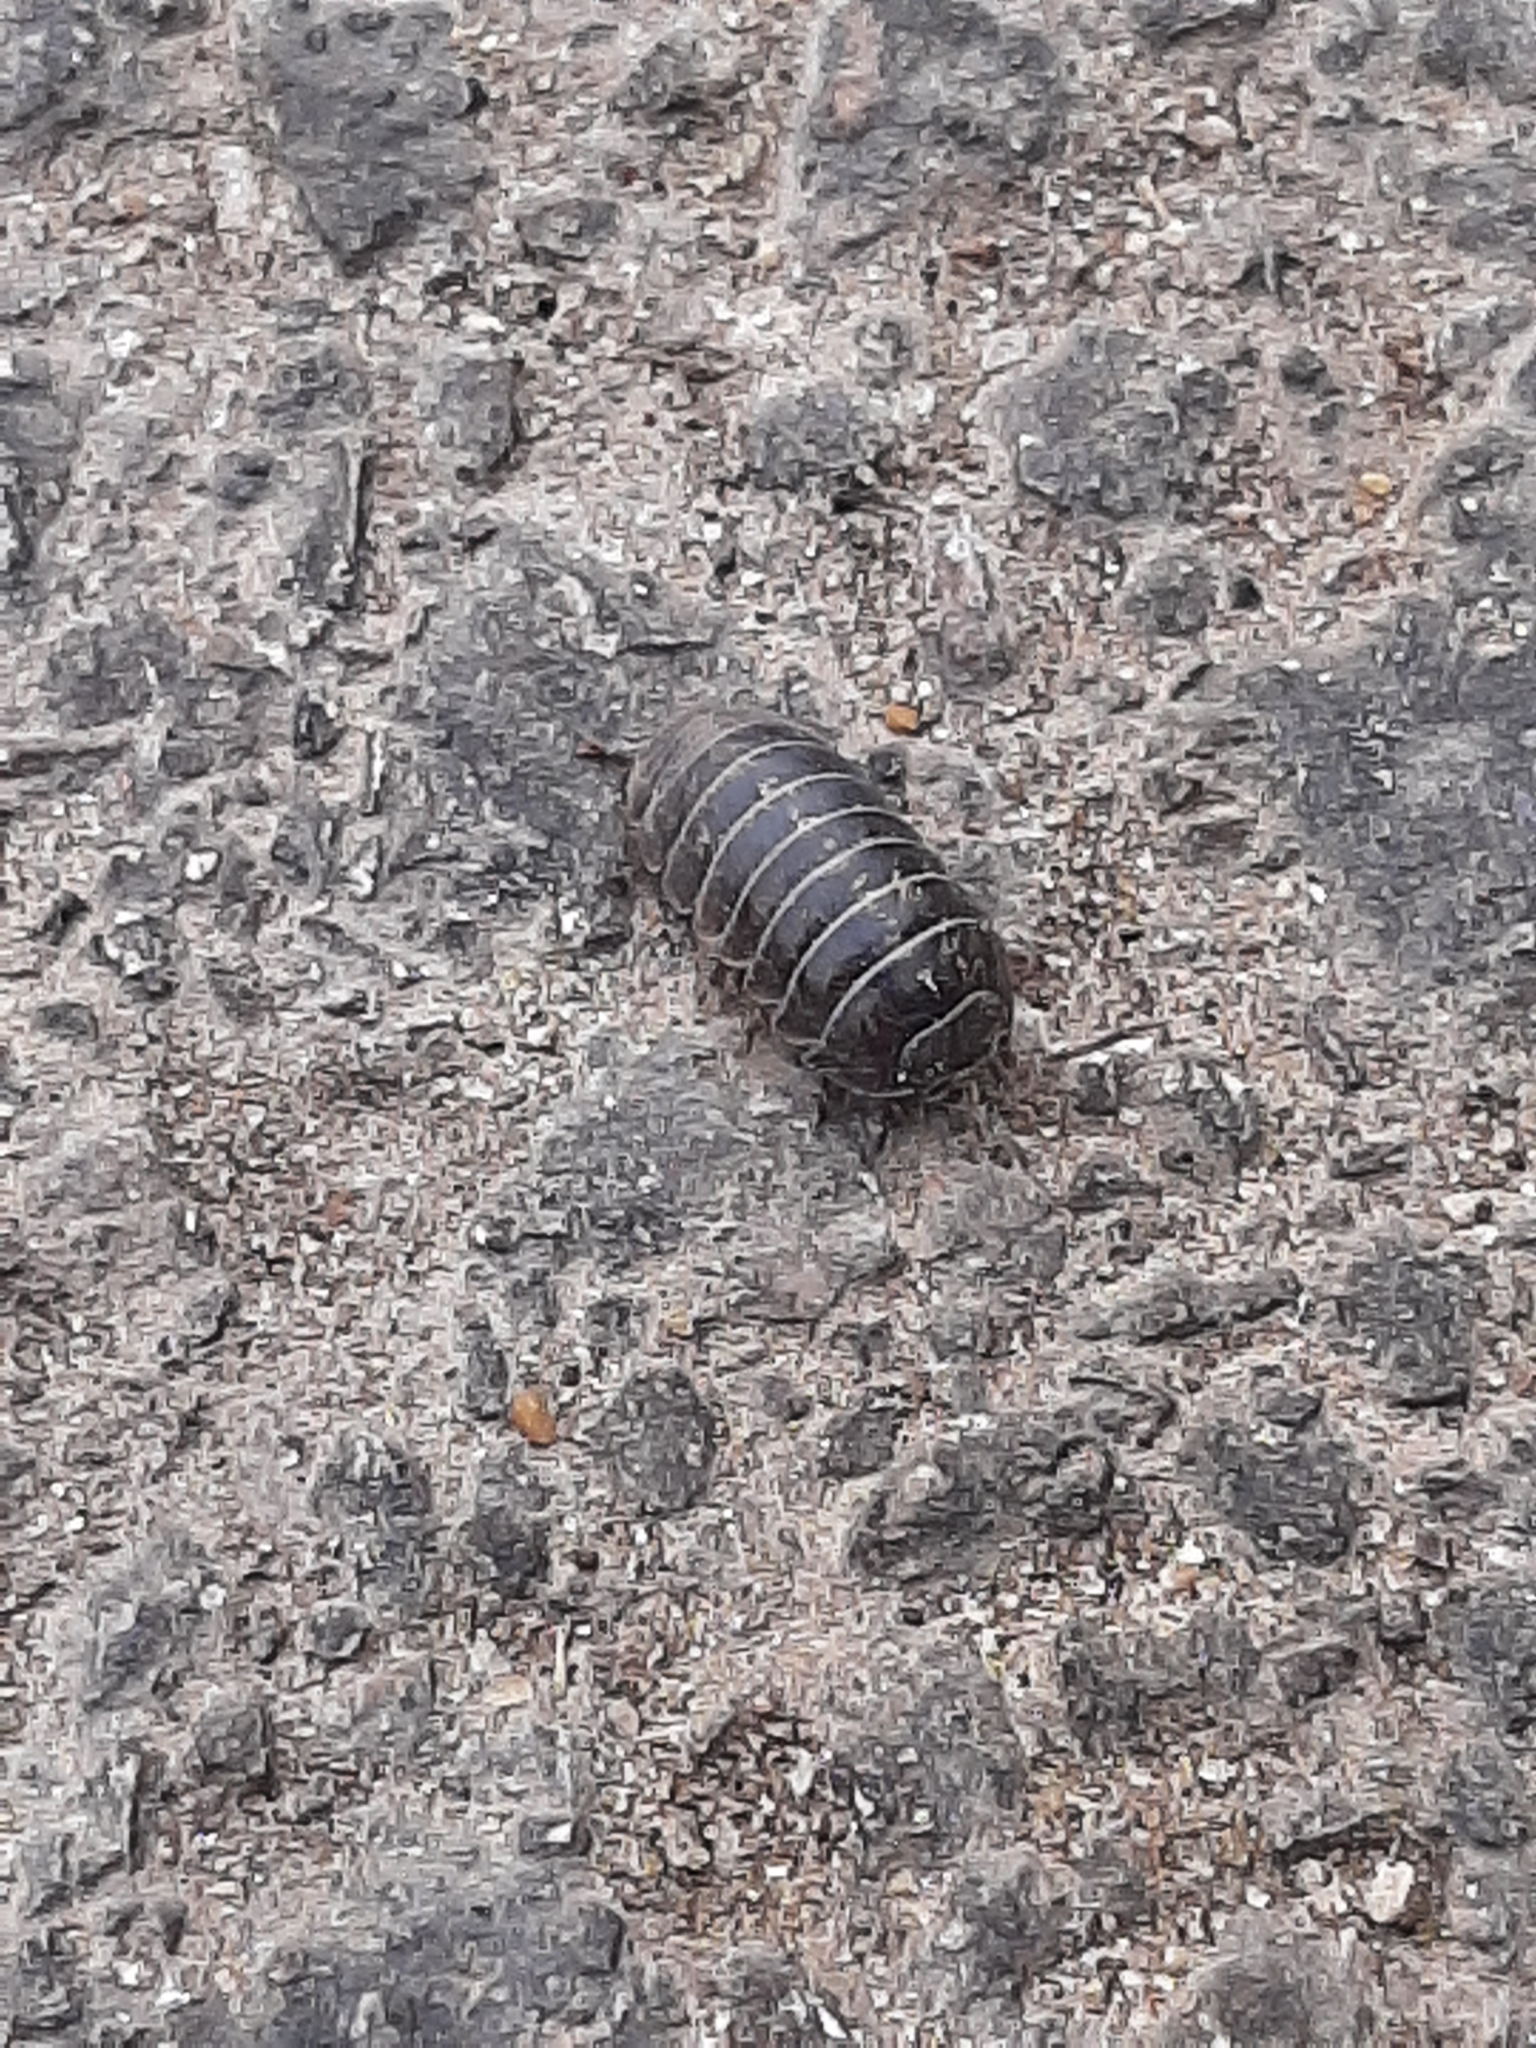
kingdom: Animalia
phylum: Arthropoda
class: Malacostraca
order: Isopoda
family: Armadillidiidae
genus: Armadillidium
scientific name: Armadillidium vulgare
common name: Common pill woodlouse
